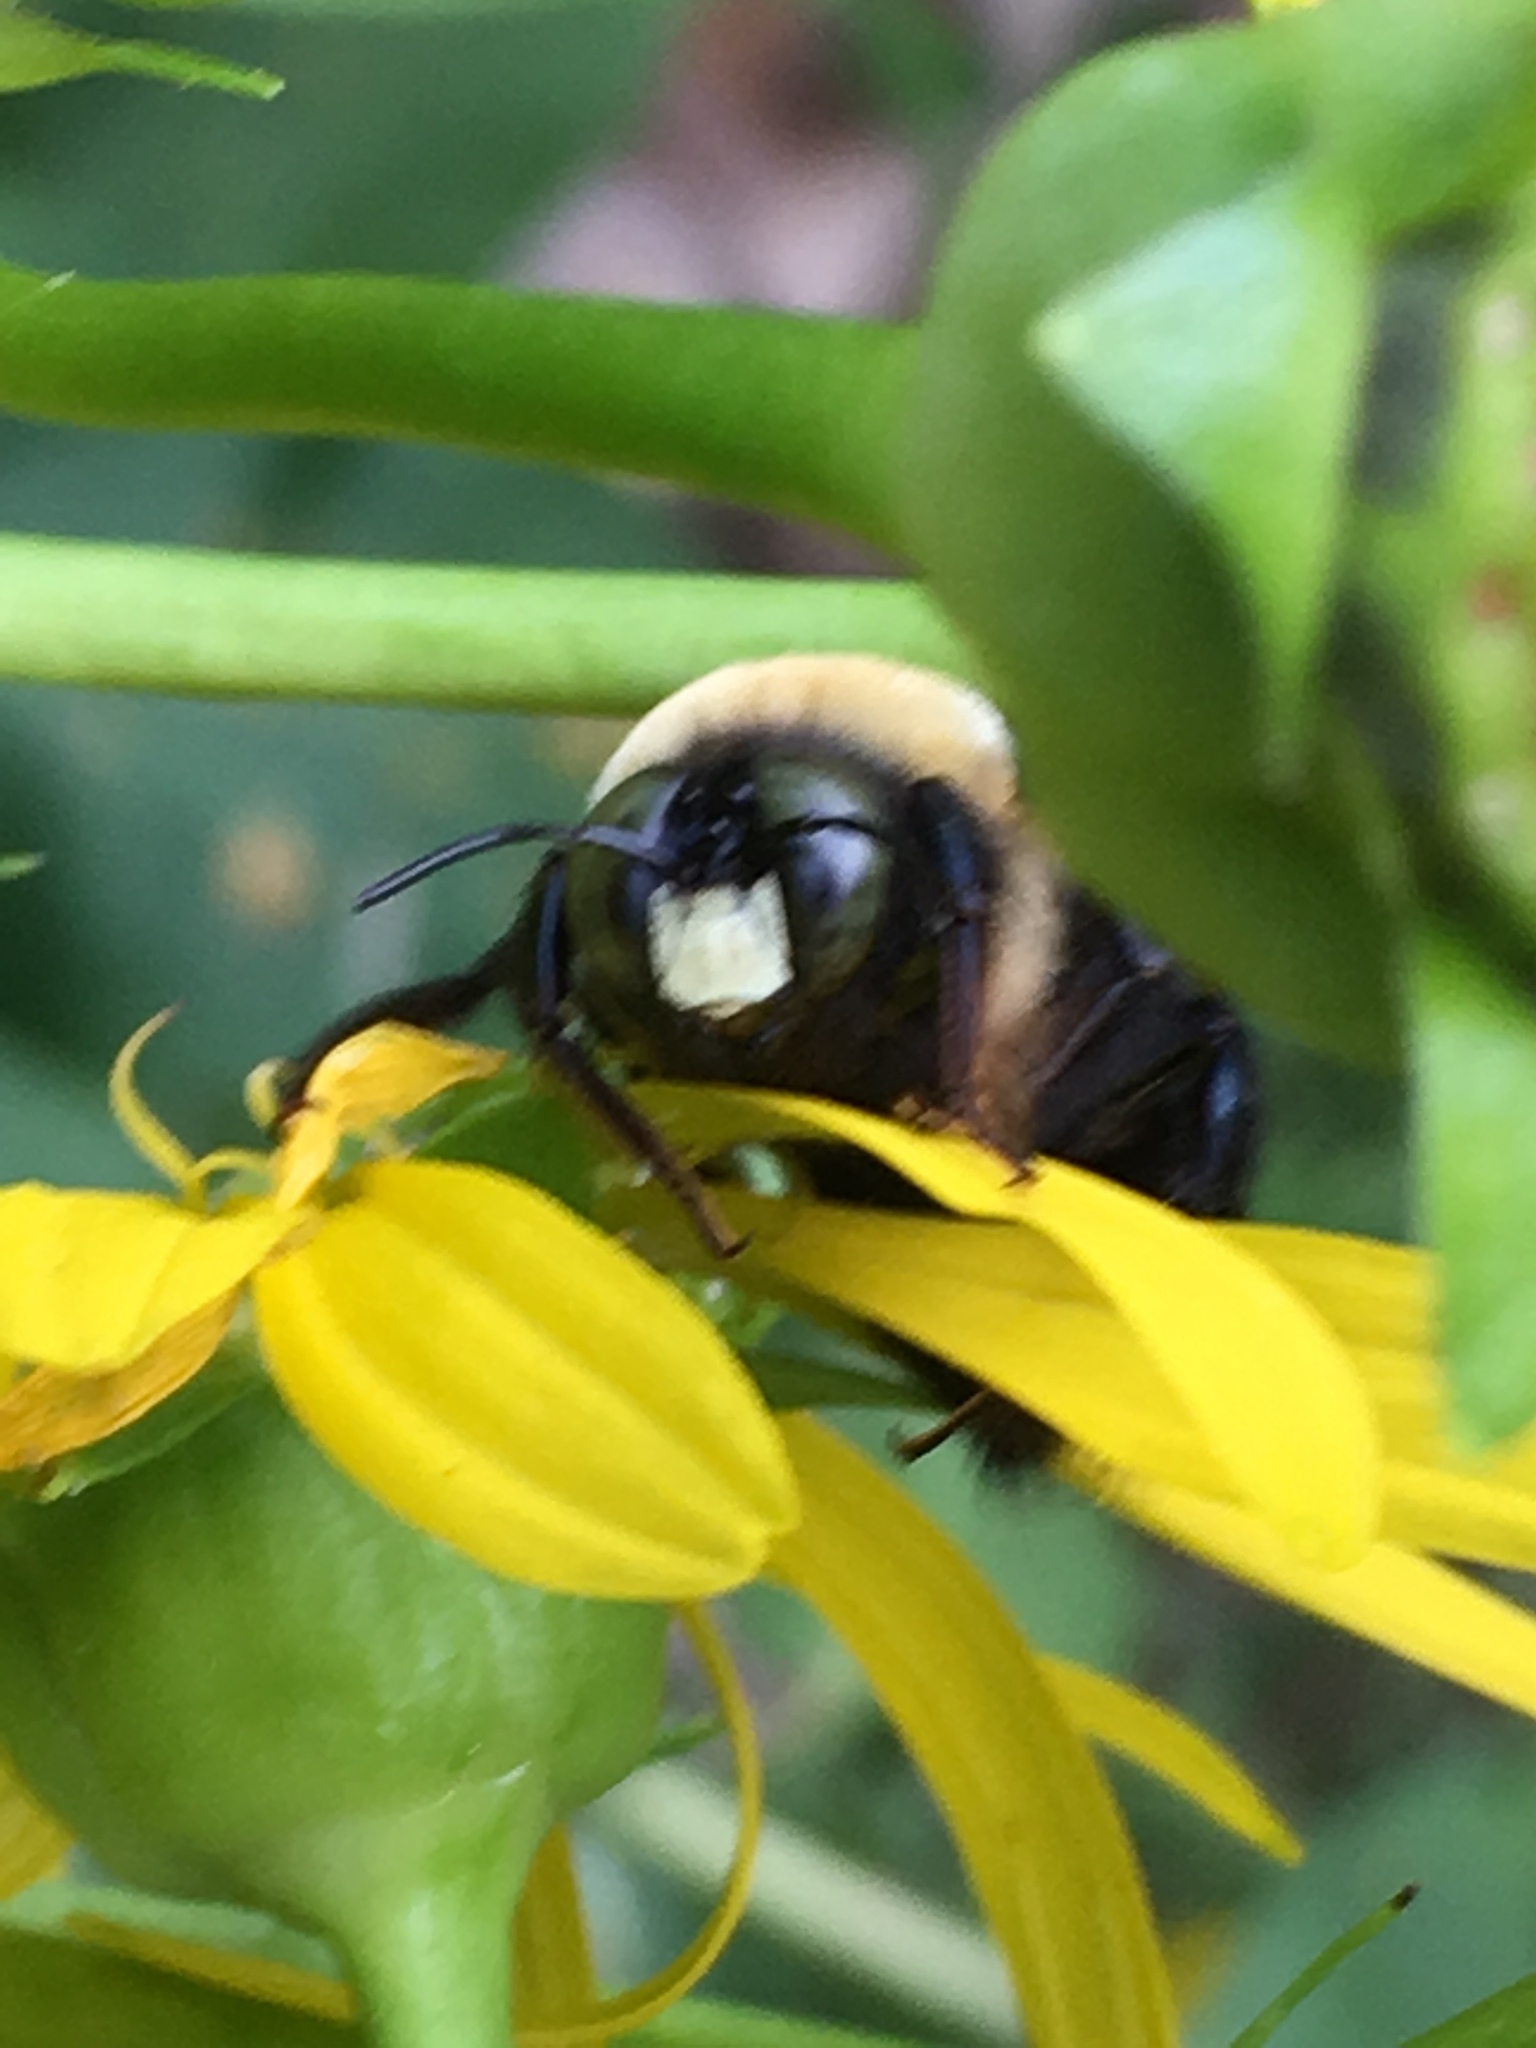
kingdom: Animalia
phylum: Arthropoda
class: Insecta
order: Hymenoptera
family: Apidae
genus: Xylocopa
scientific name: Xylocopa virginica
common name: Carpenter bee
